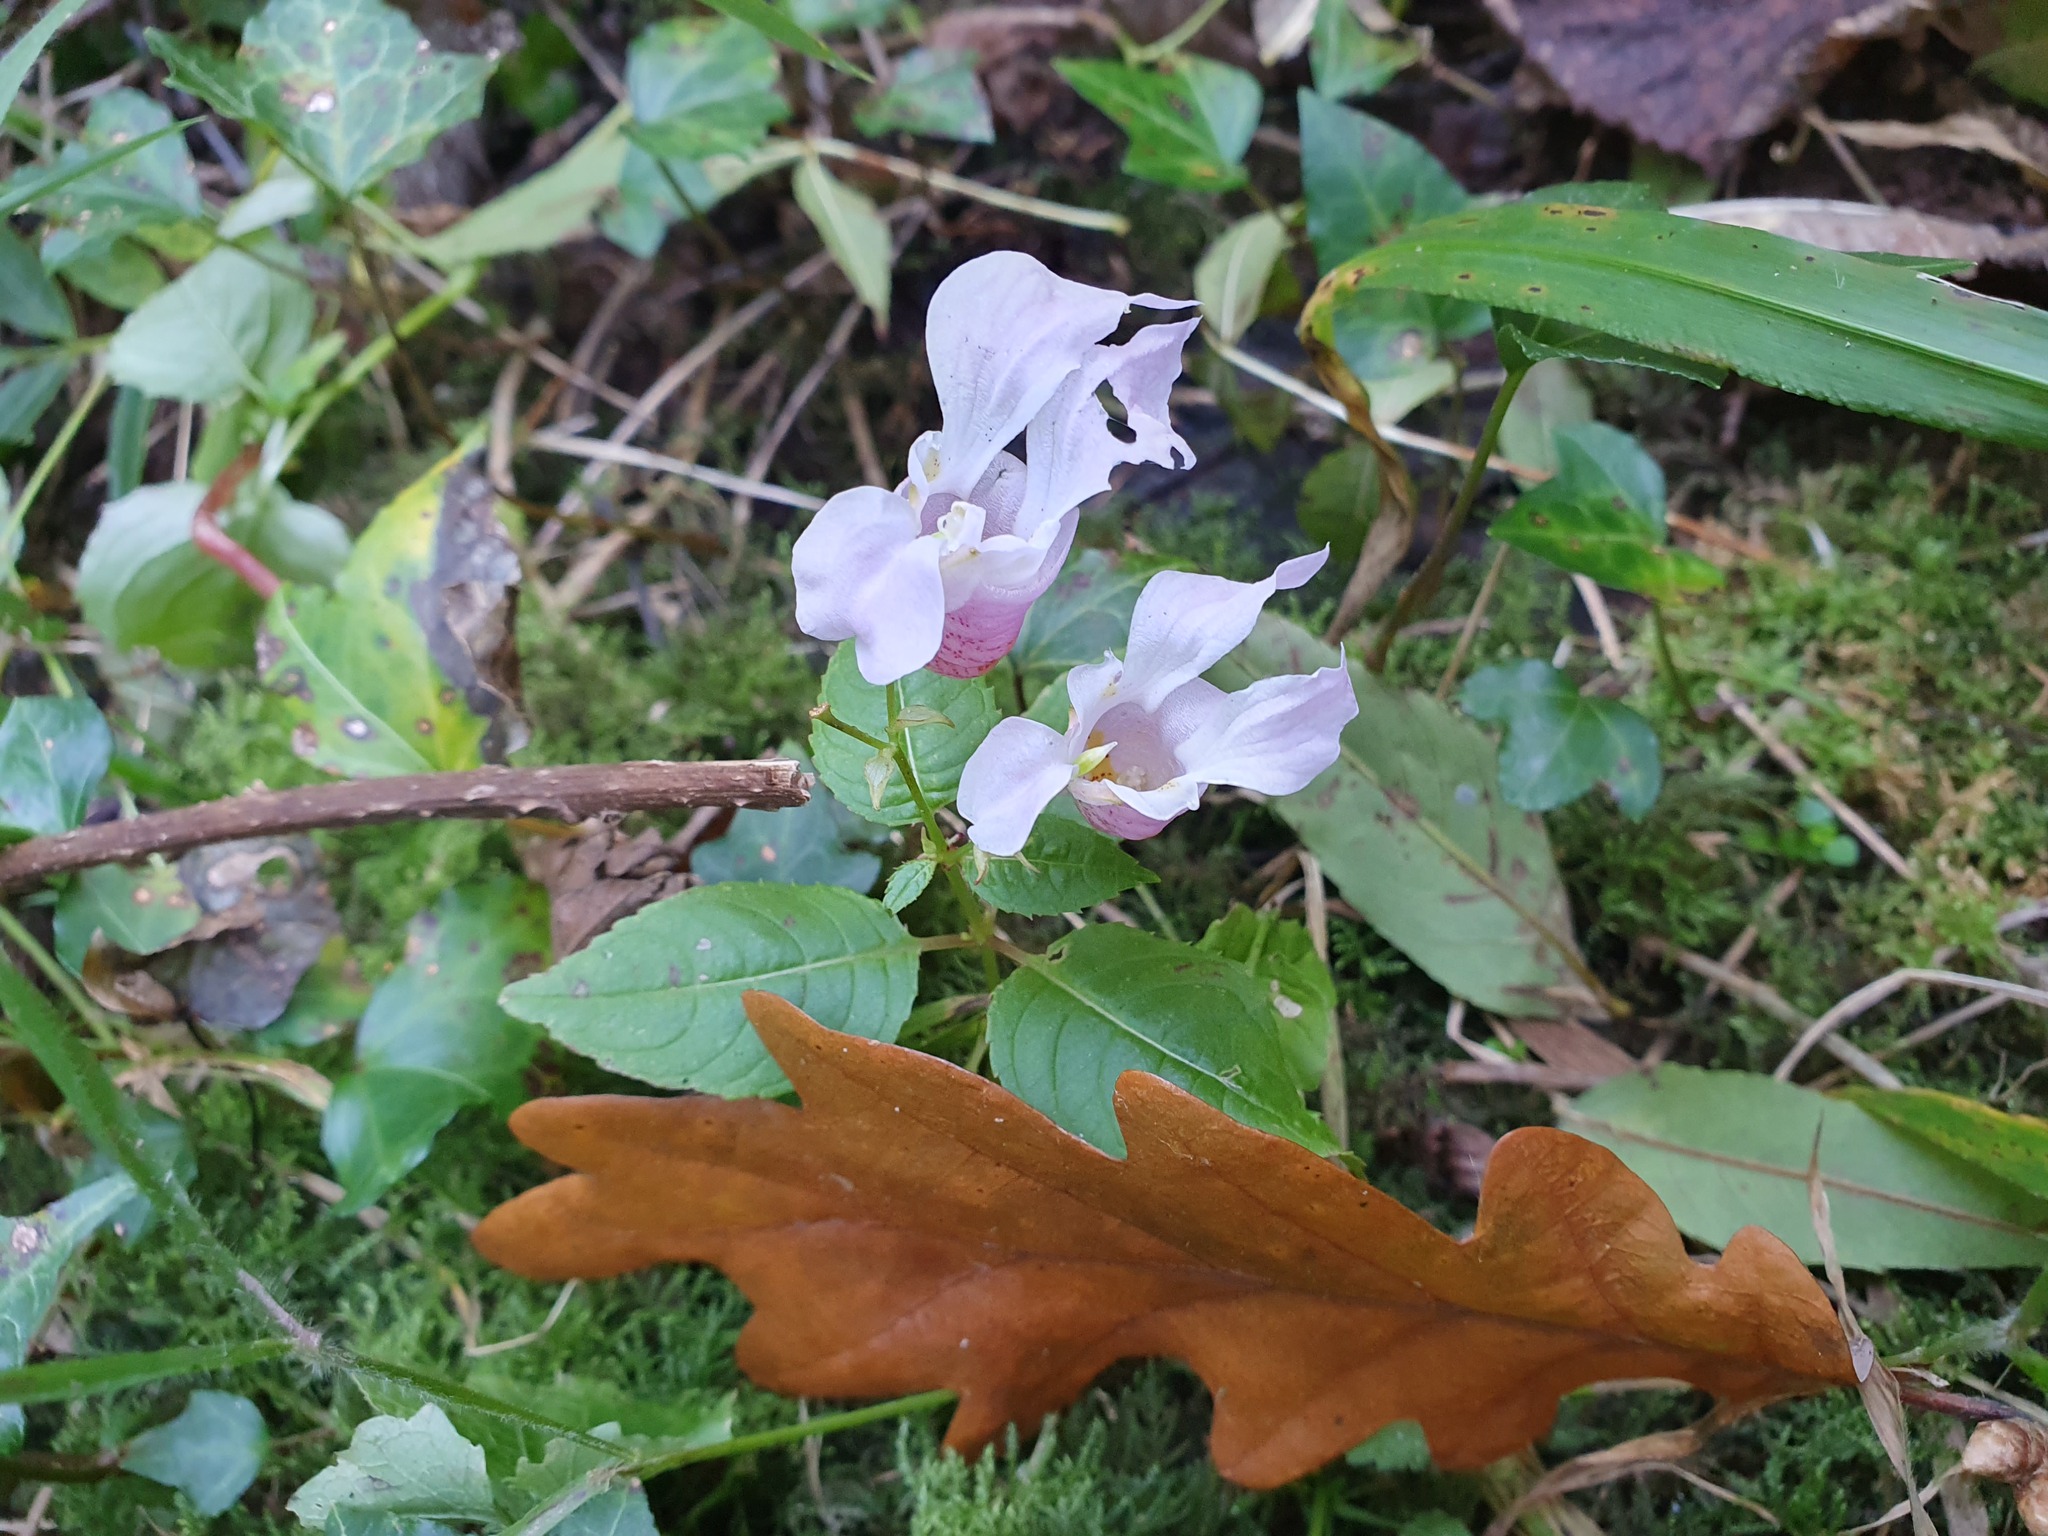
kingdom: Plantae
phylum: Tracheophyta
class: Magnoliopsida
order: Ericales
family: Balsaminaceae
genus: Impatiens
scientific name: Impatiens glandulifera
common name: Himalayan balsam
